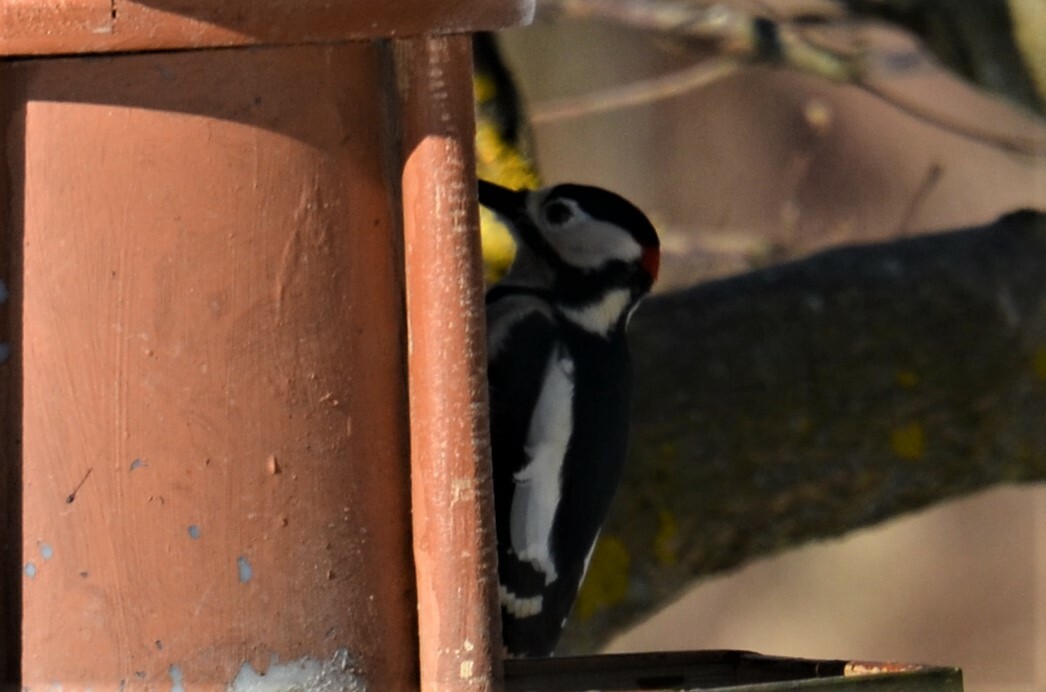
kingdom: Animalia
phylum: Chordata
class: Aves
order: Piciformes
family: Picidae
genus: Dendrocopos
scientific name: Dendrocopos major
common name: Great spotted woodpecker
